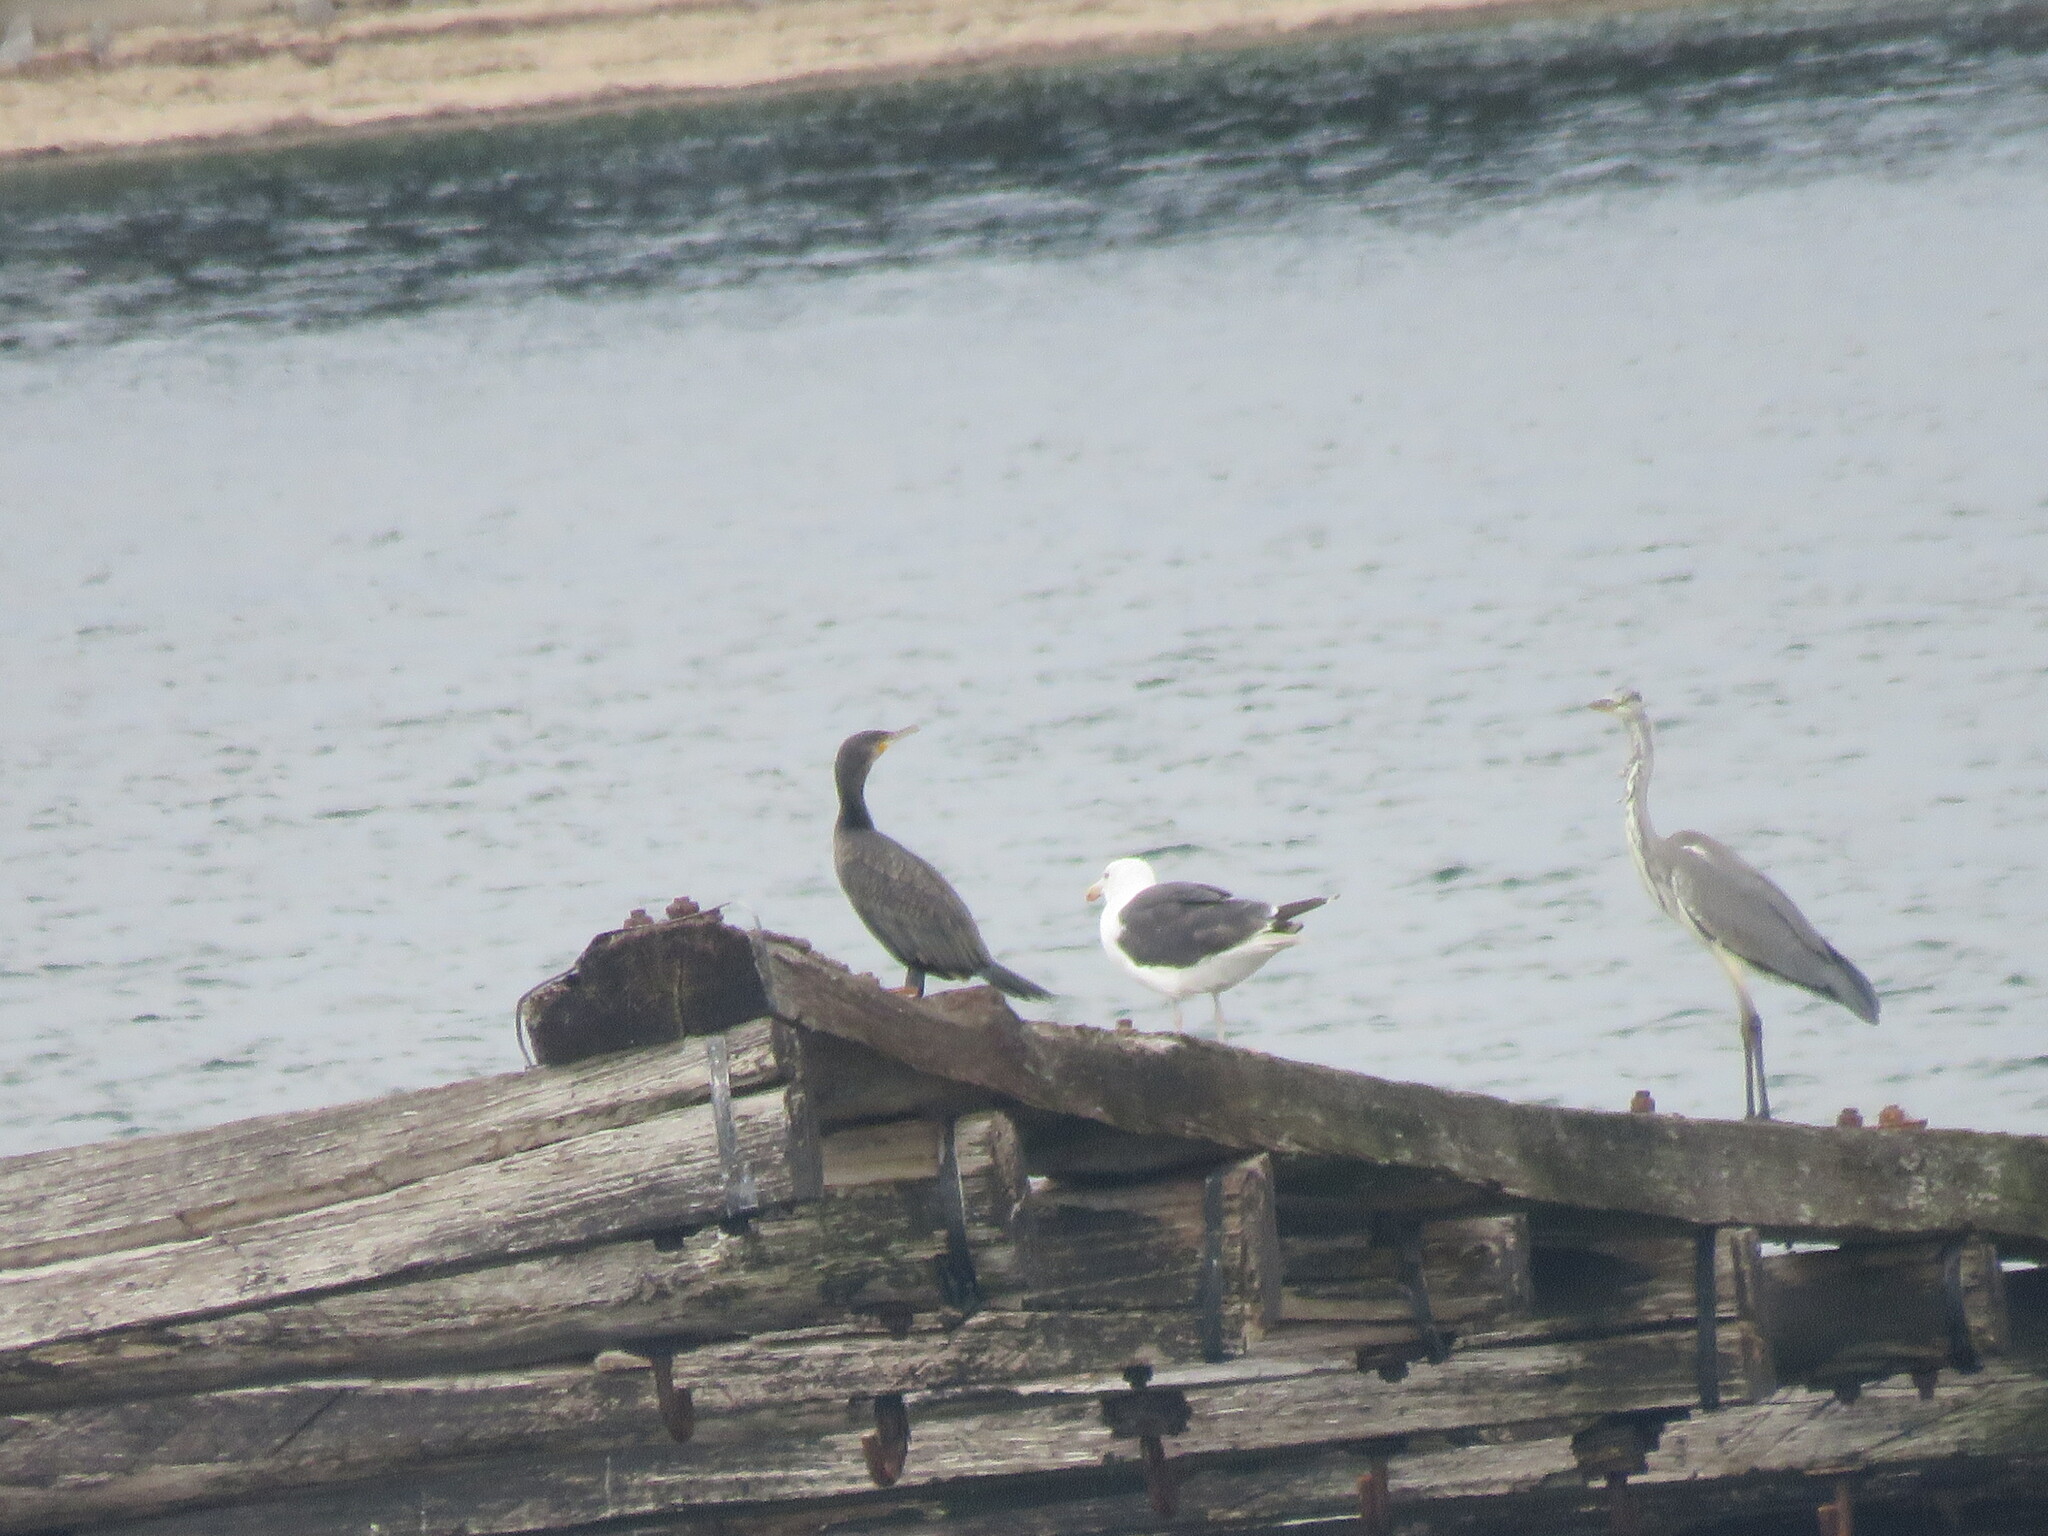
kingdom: Animalia
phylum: Chordata
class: Aves
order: Pelecaniformes
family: Ardeidae
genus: Ardea
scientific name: Ardea cinerea
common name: Grey heron
